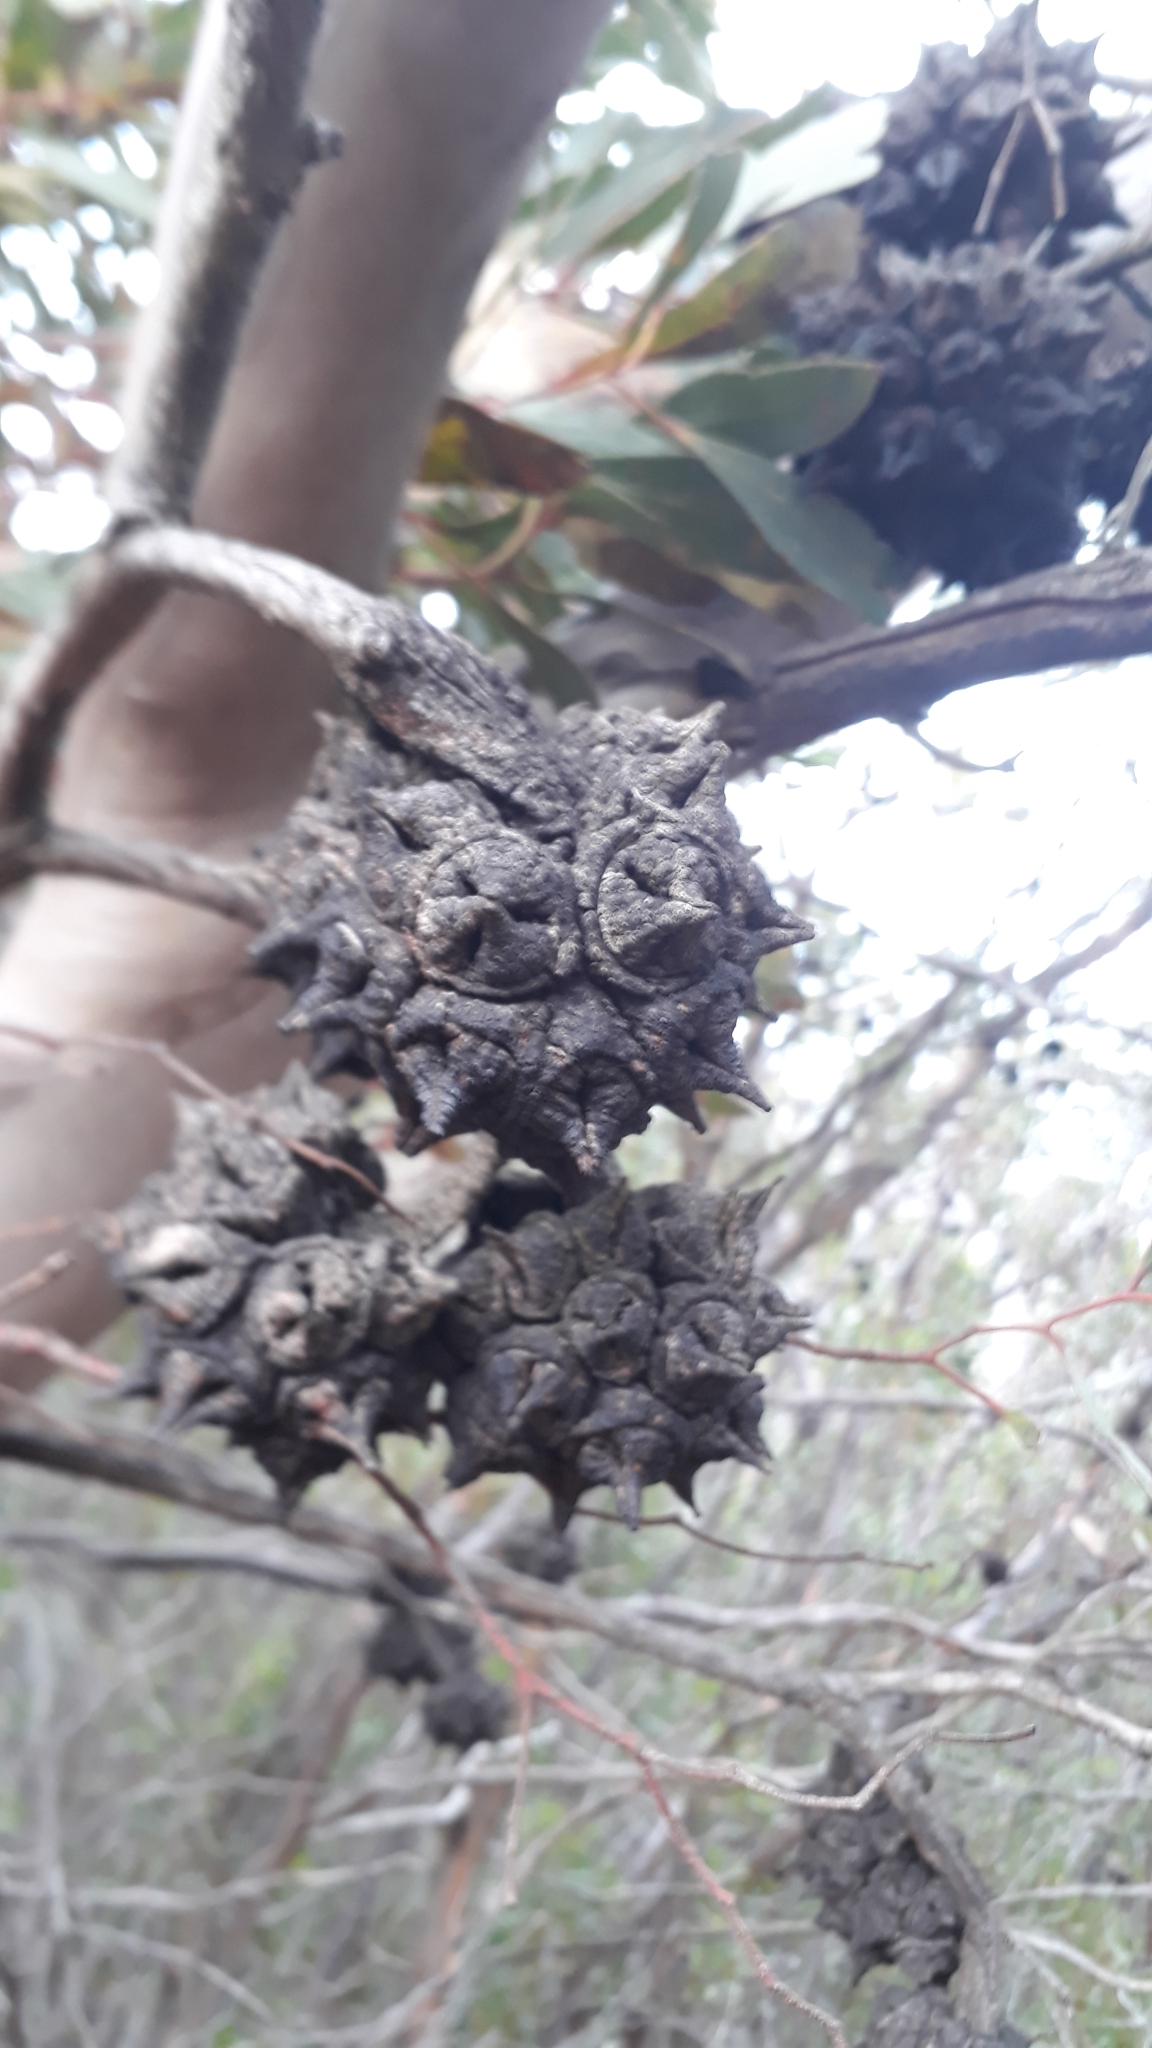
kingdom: Plantae
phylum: Tracheophyta
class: Magnoliopsida
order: Myrtales
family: Myrtaceae
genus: Eucalyptus
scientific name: Eucalyptus conferruminata
